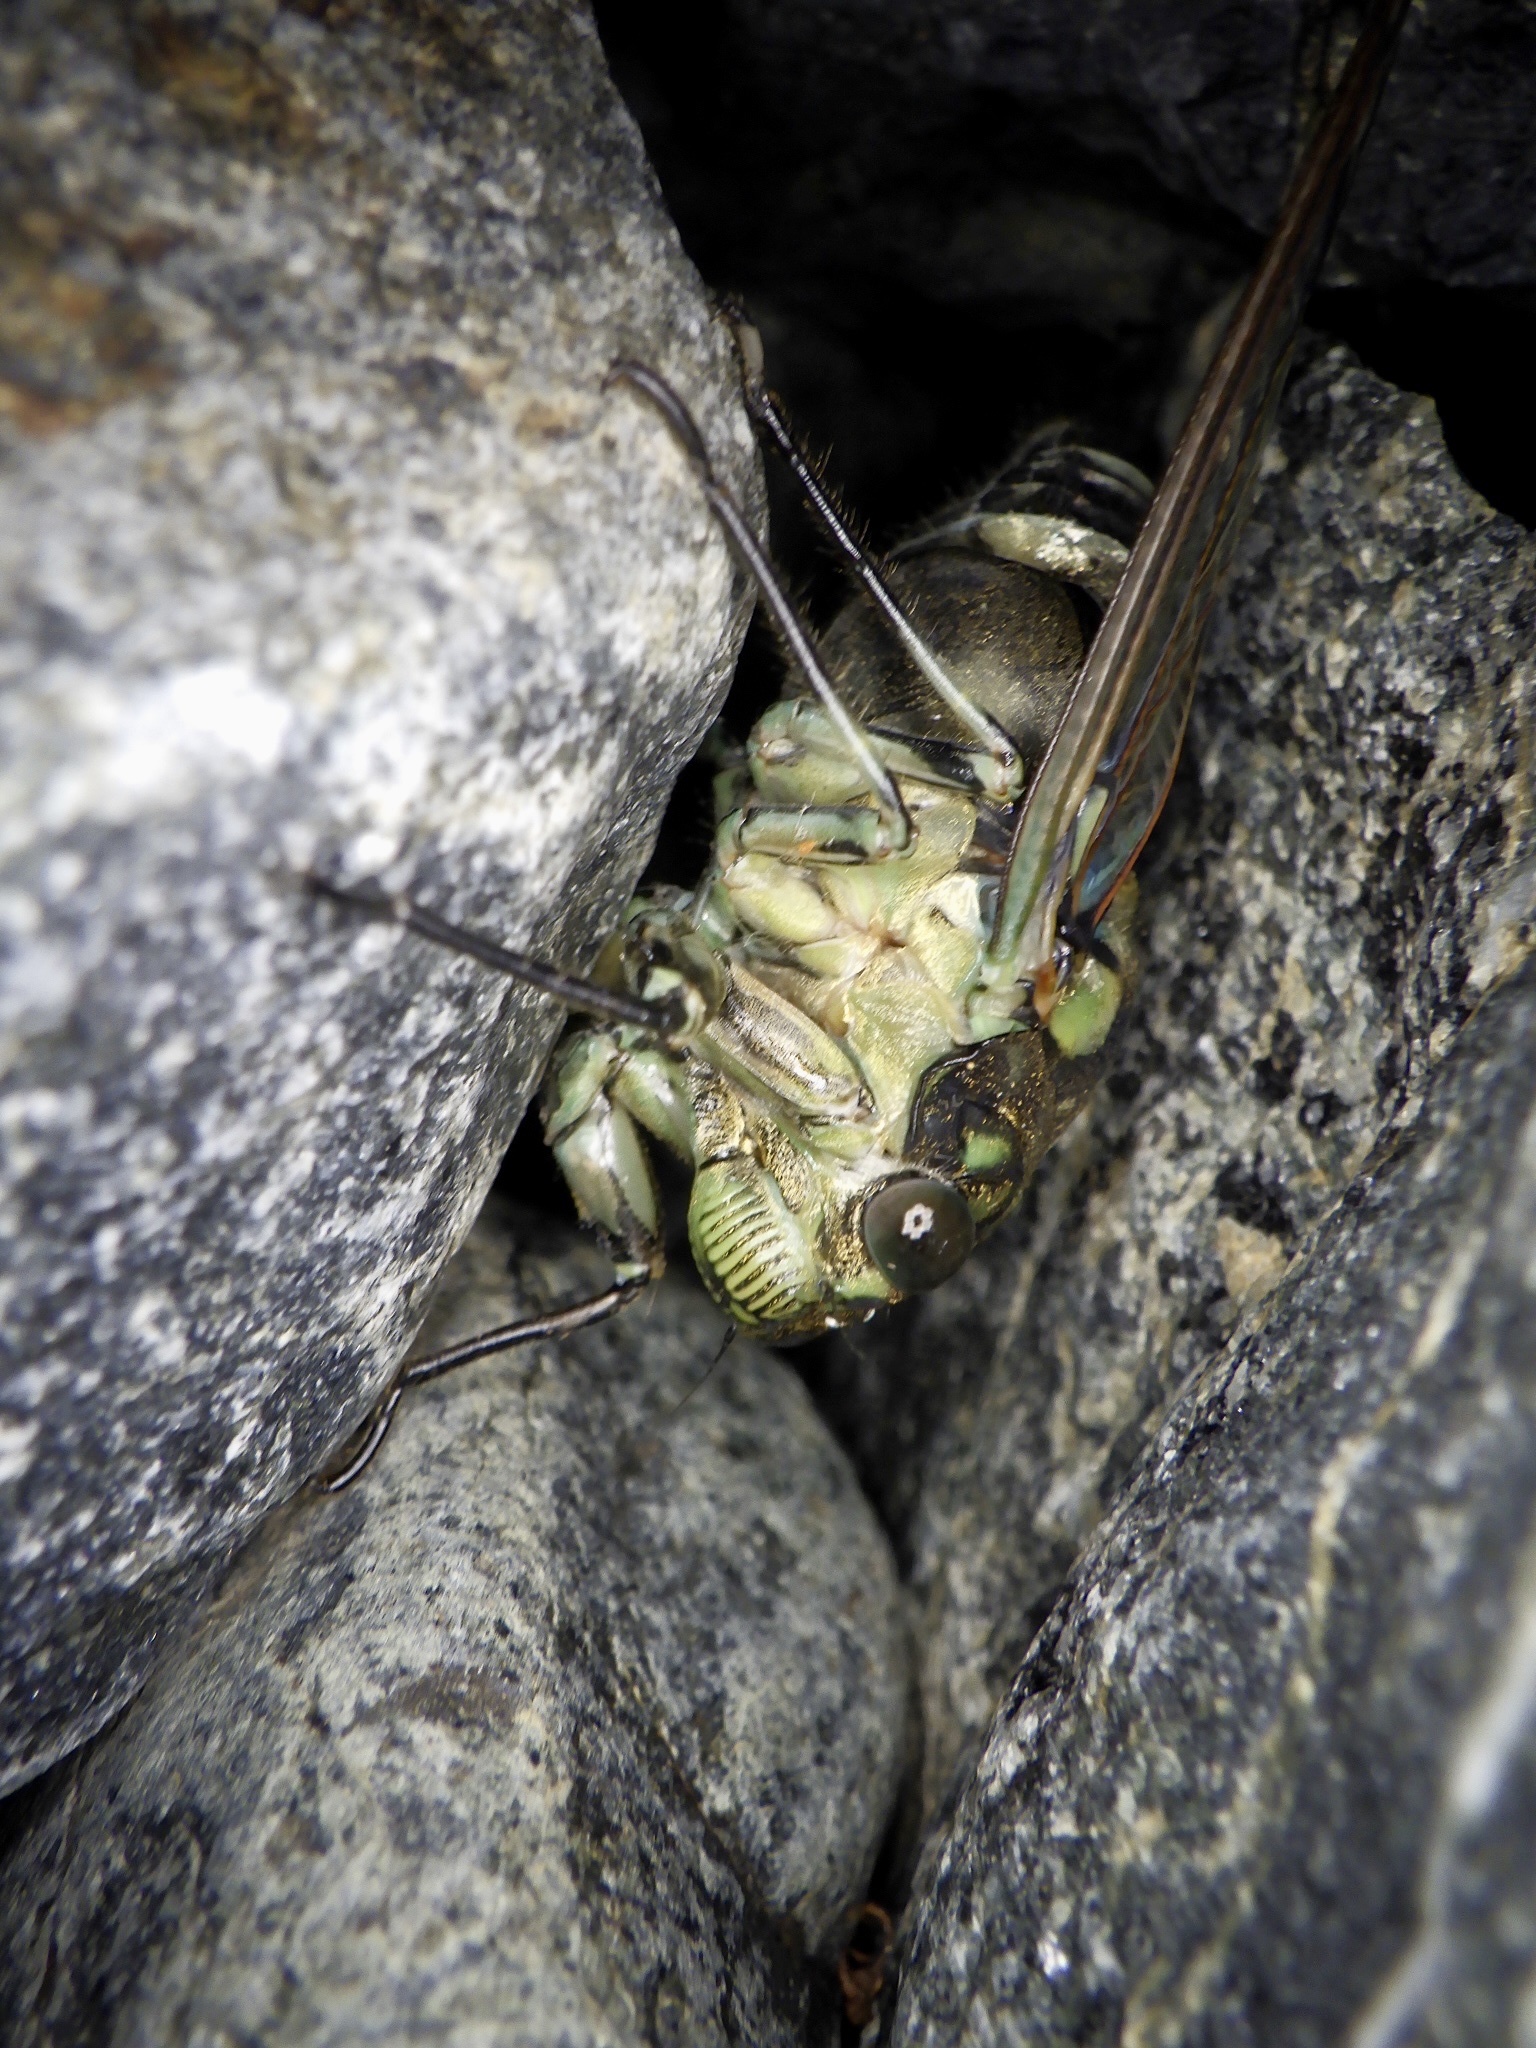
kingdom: Animalia
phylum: Arthropoda
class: Insecta
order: Hemiptera
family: Cicadidae
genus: Hyalessa
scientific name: Hyalessa maculaticollis
